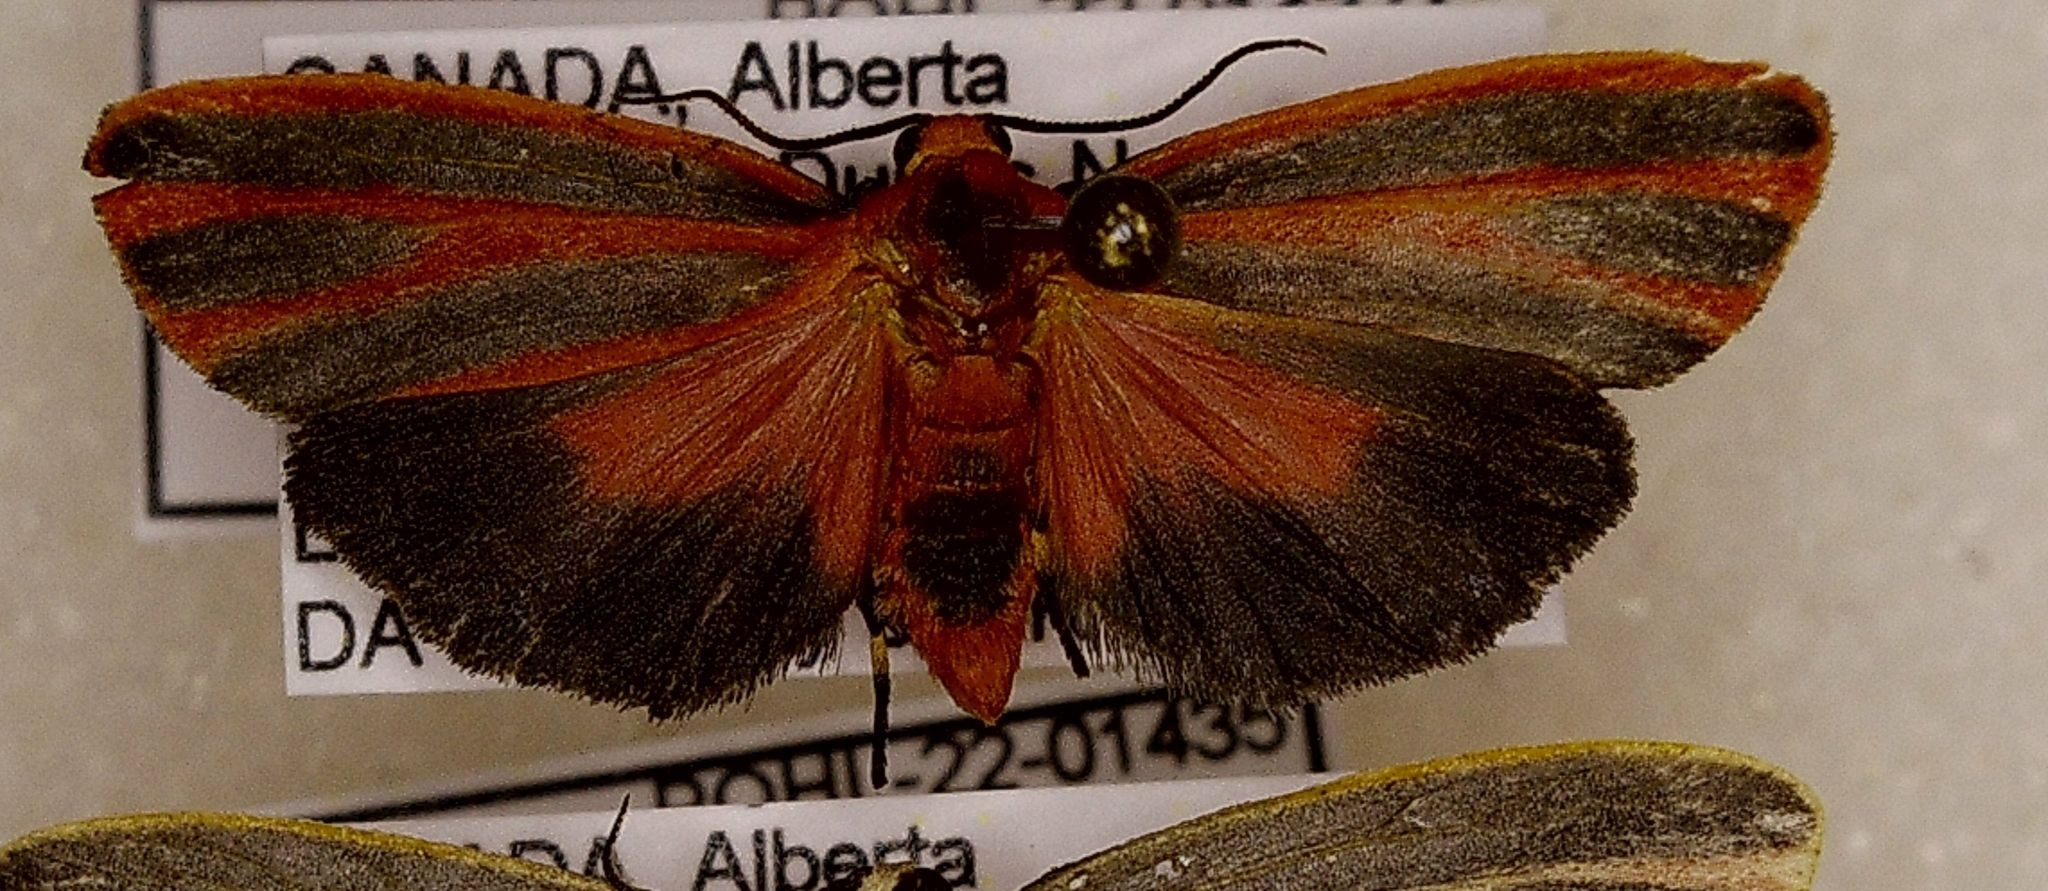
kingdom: Animalia
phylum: Arthropoda
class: Insecta
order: Lepidoptera
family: Erebidae
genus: Hypoprepia
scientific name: Hypoprepia miniata
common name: Scarlet-winged lichen moth
